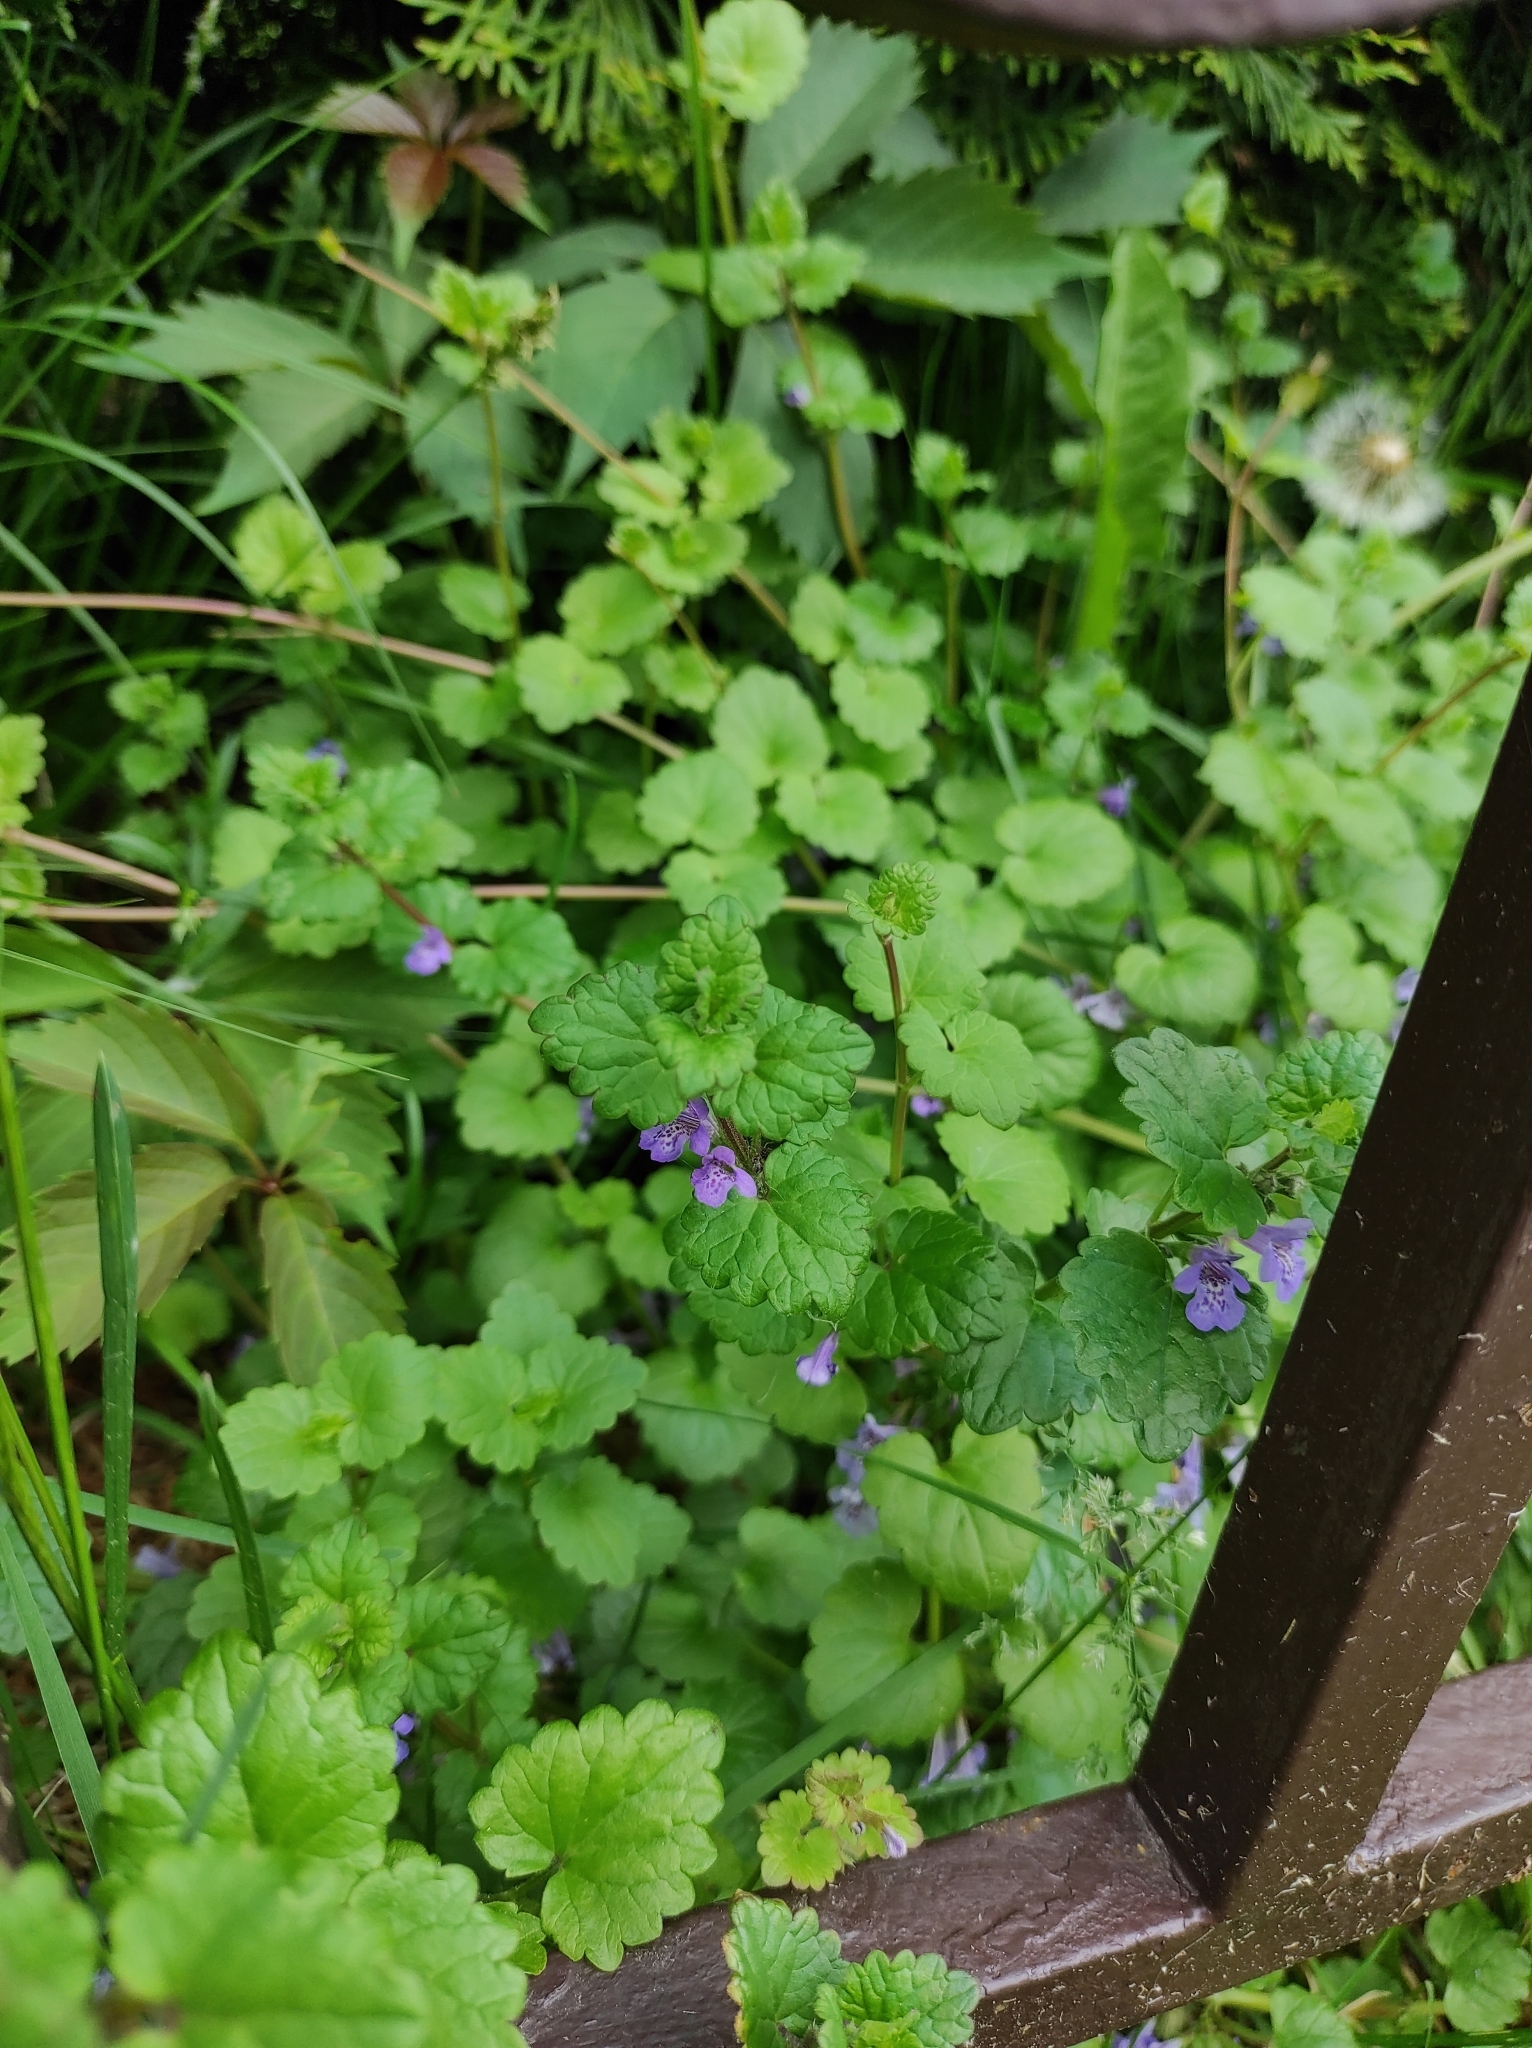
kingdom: Plantae
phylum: Tracheophyta
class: Magnoliopsida
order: Lamiales
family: Lamiaceae
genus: Glechoma
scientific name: Glechoma hederacea
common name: Ground ivy
